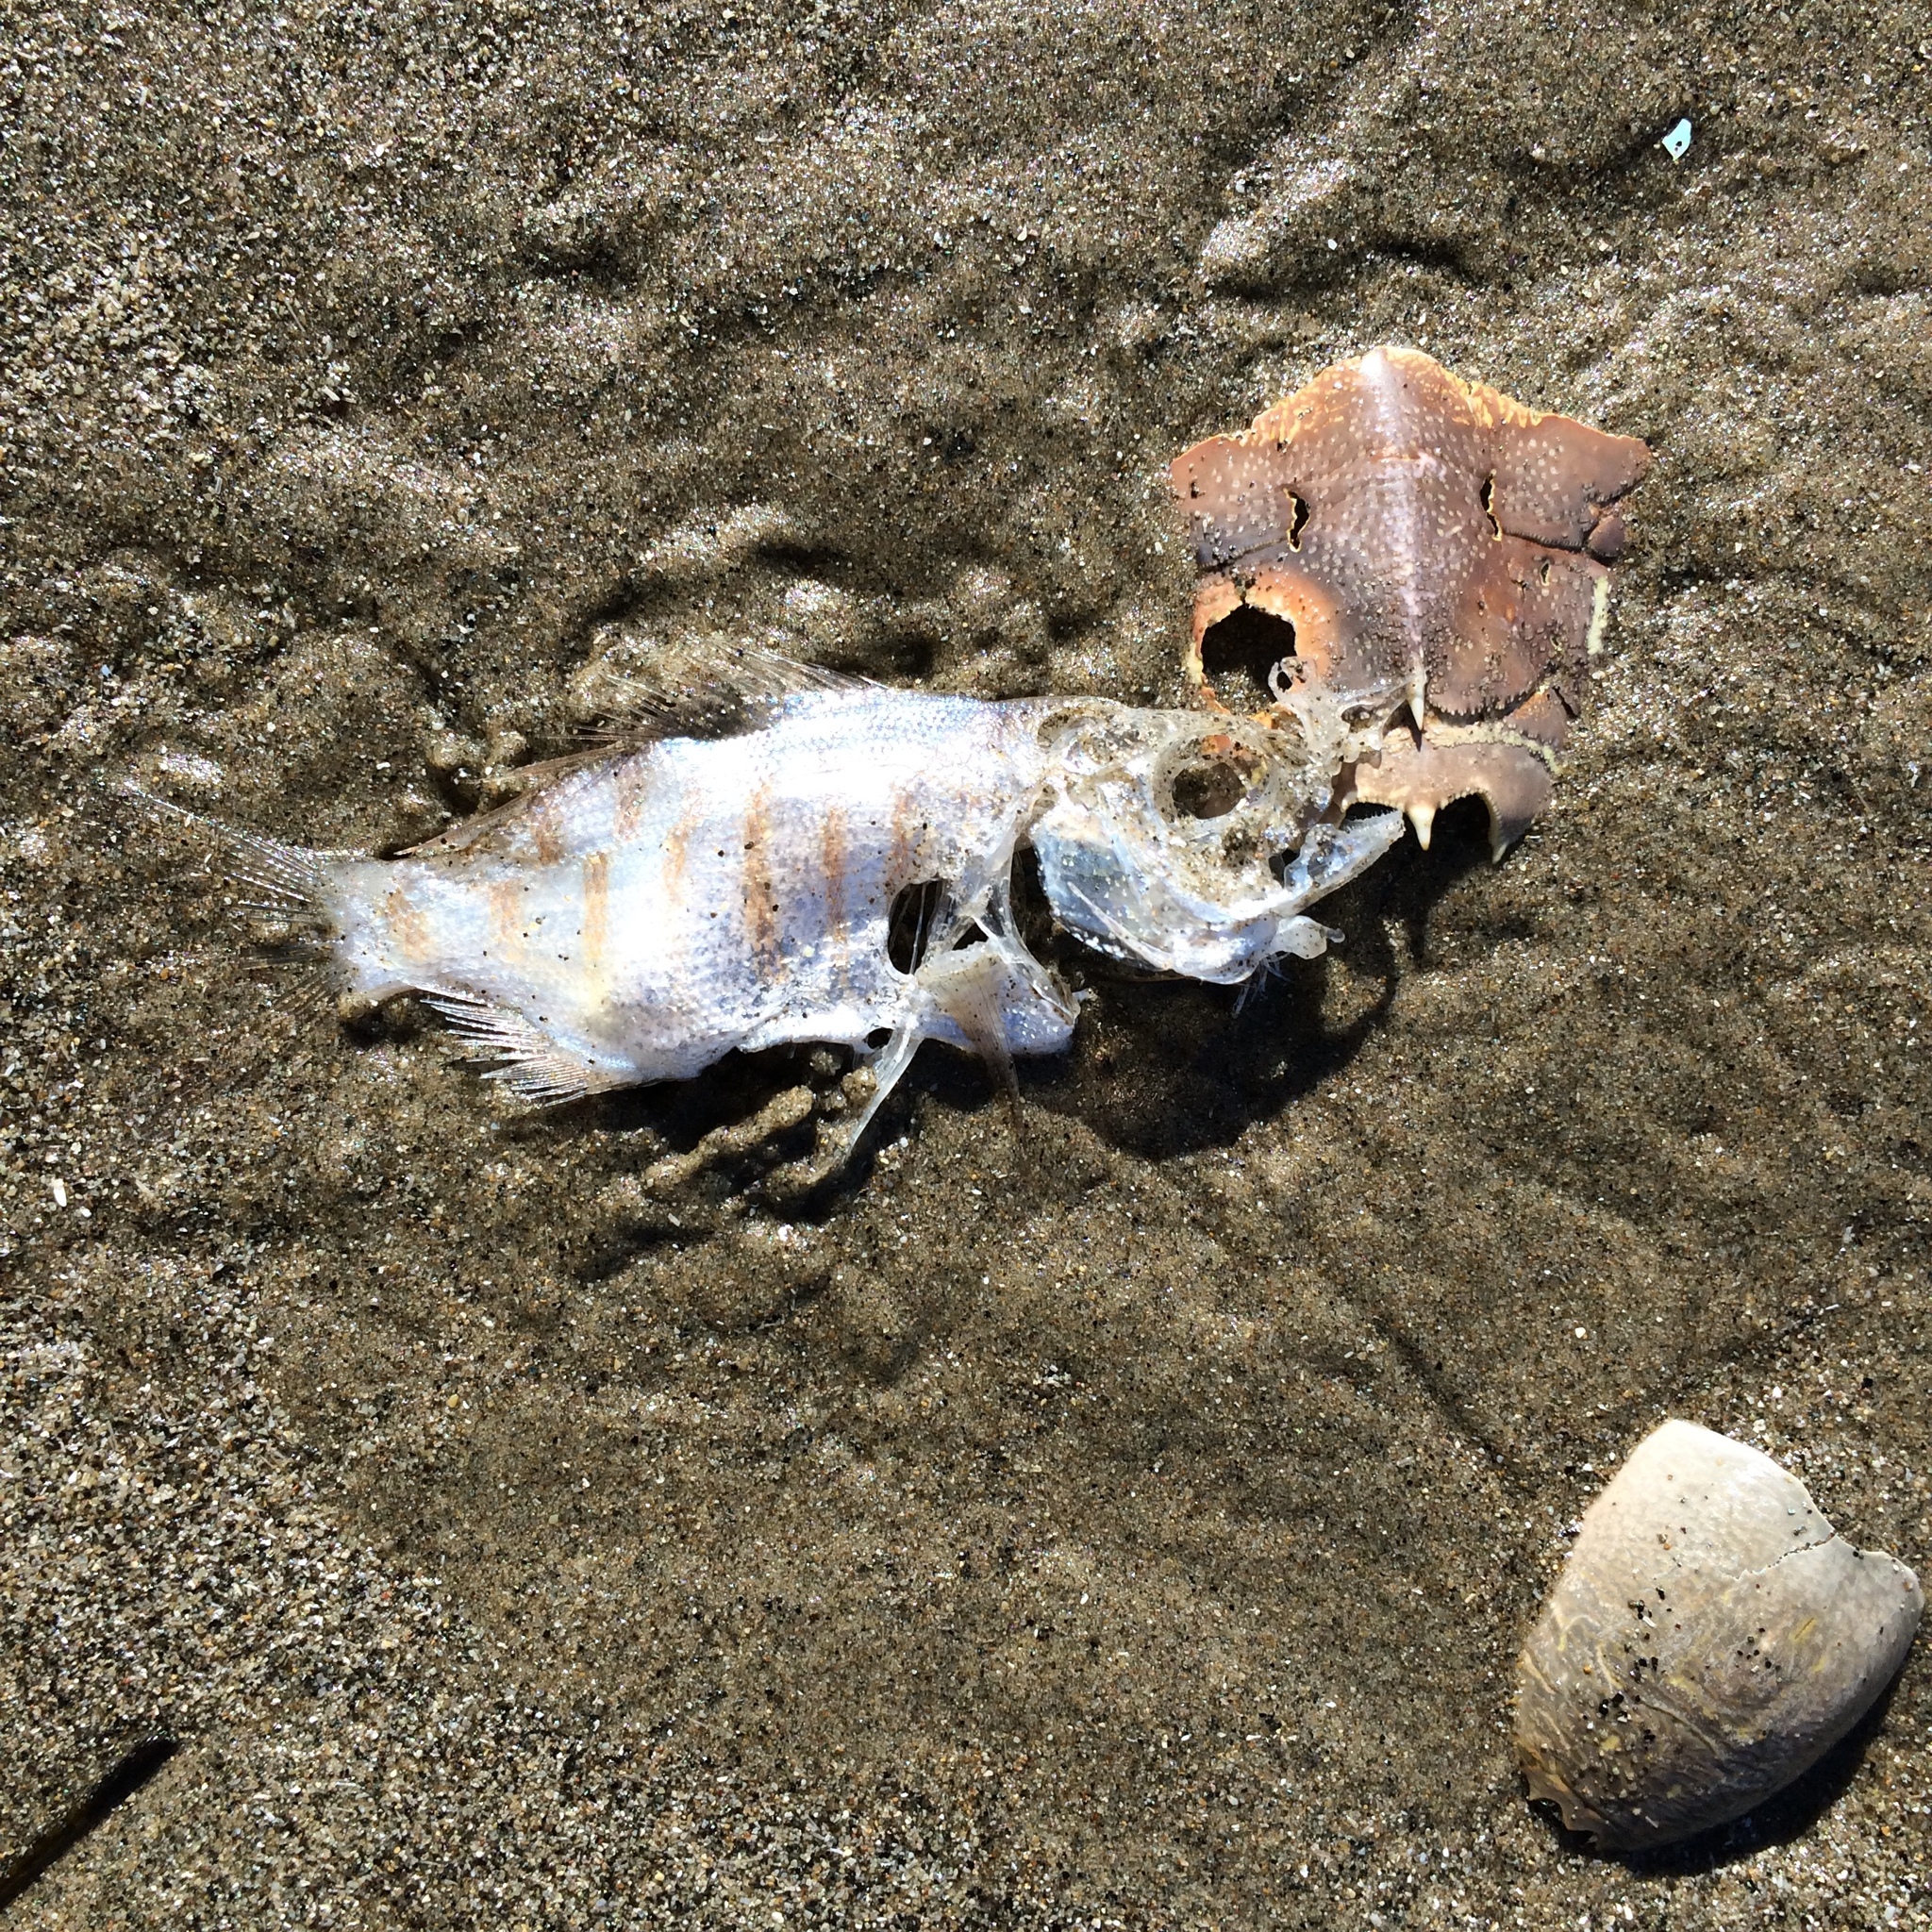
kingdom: Animalia
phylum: Chordata
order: Perciformes
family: Embiotocidae
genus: Amphistichus
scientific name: Amphistichus argenteus
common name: Barred surfperch
